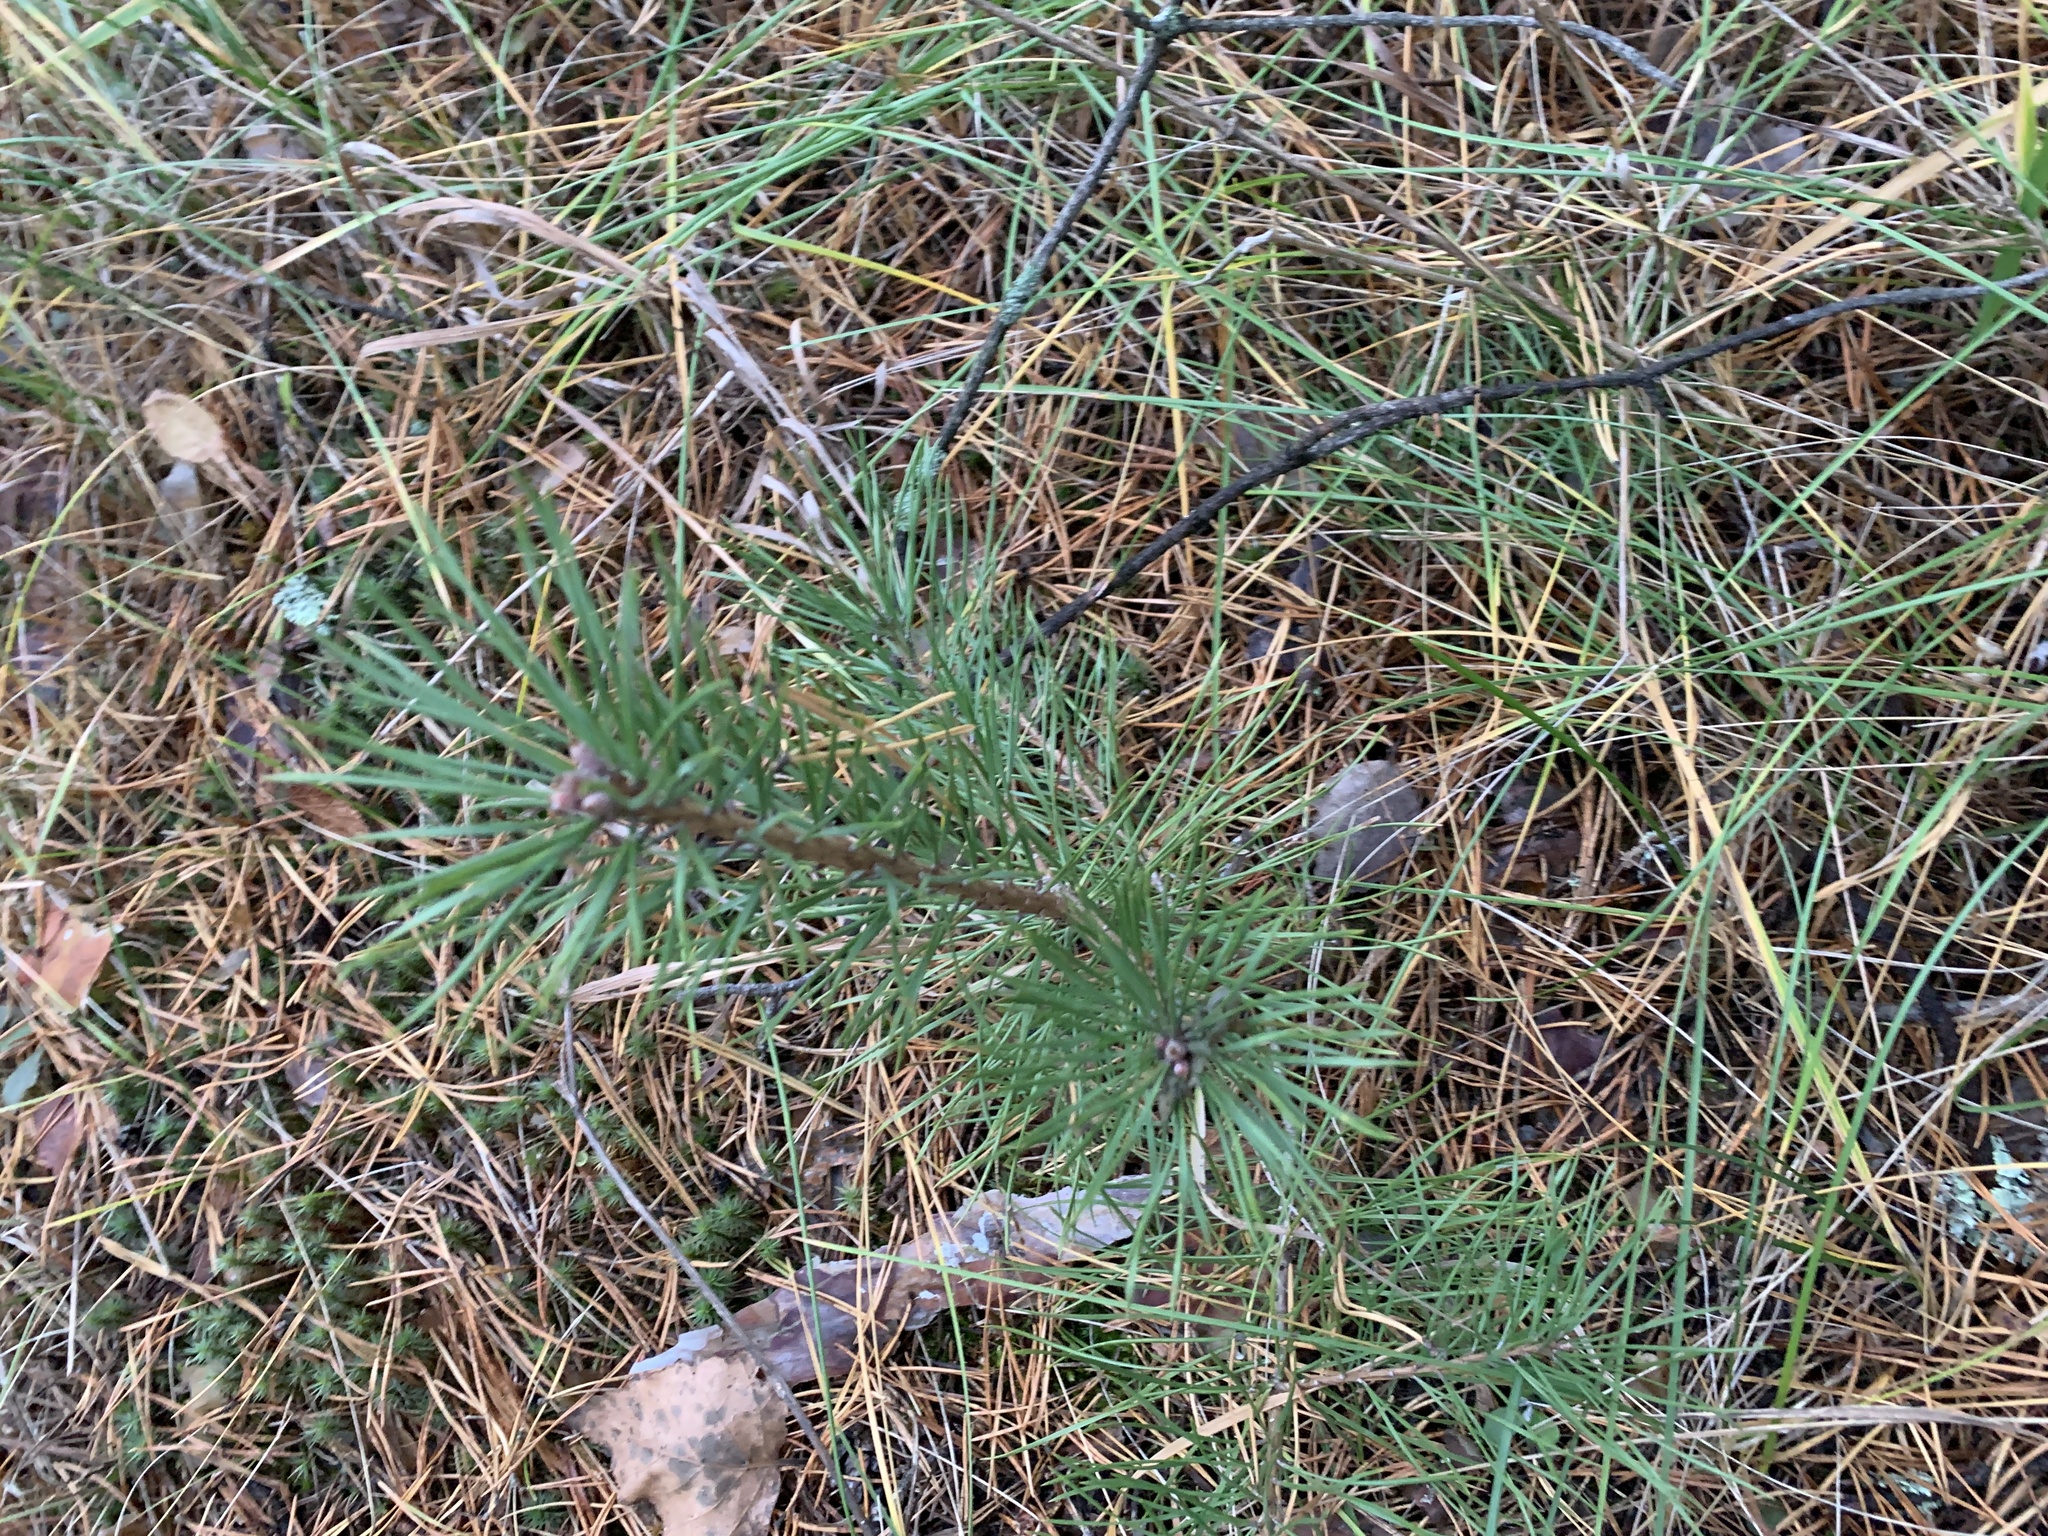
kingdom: Plantae
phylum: Tracheophyta
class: Pinopsida
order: Pinales
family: Pinaceae
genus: Pinus
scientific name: Pinus sylvestris
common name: Scots pine
